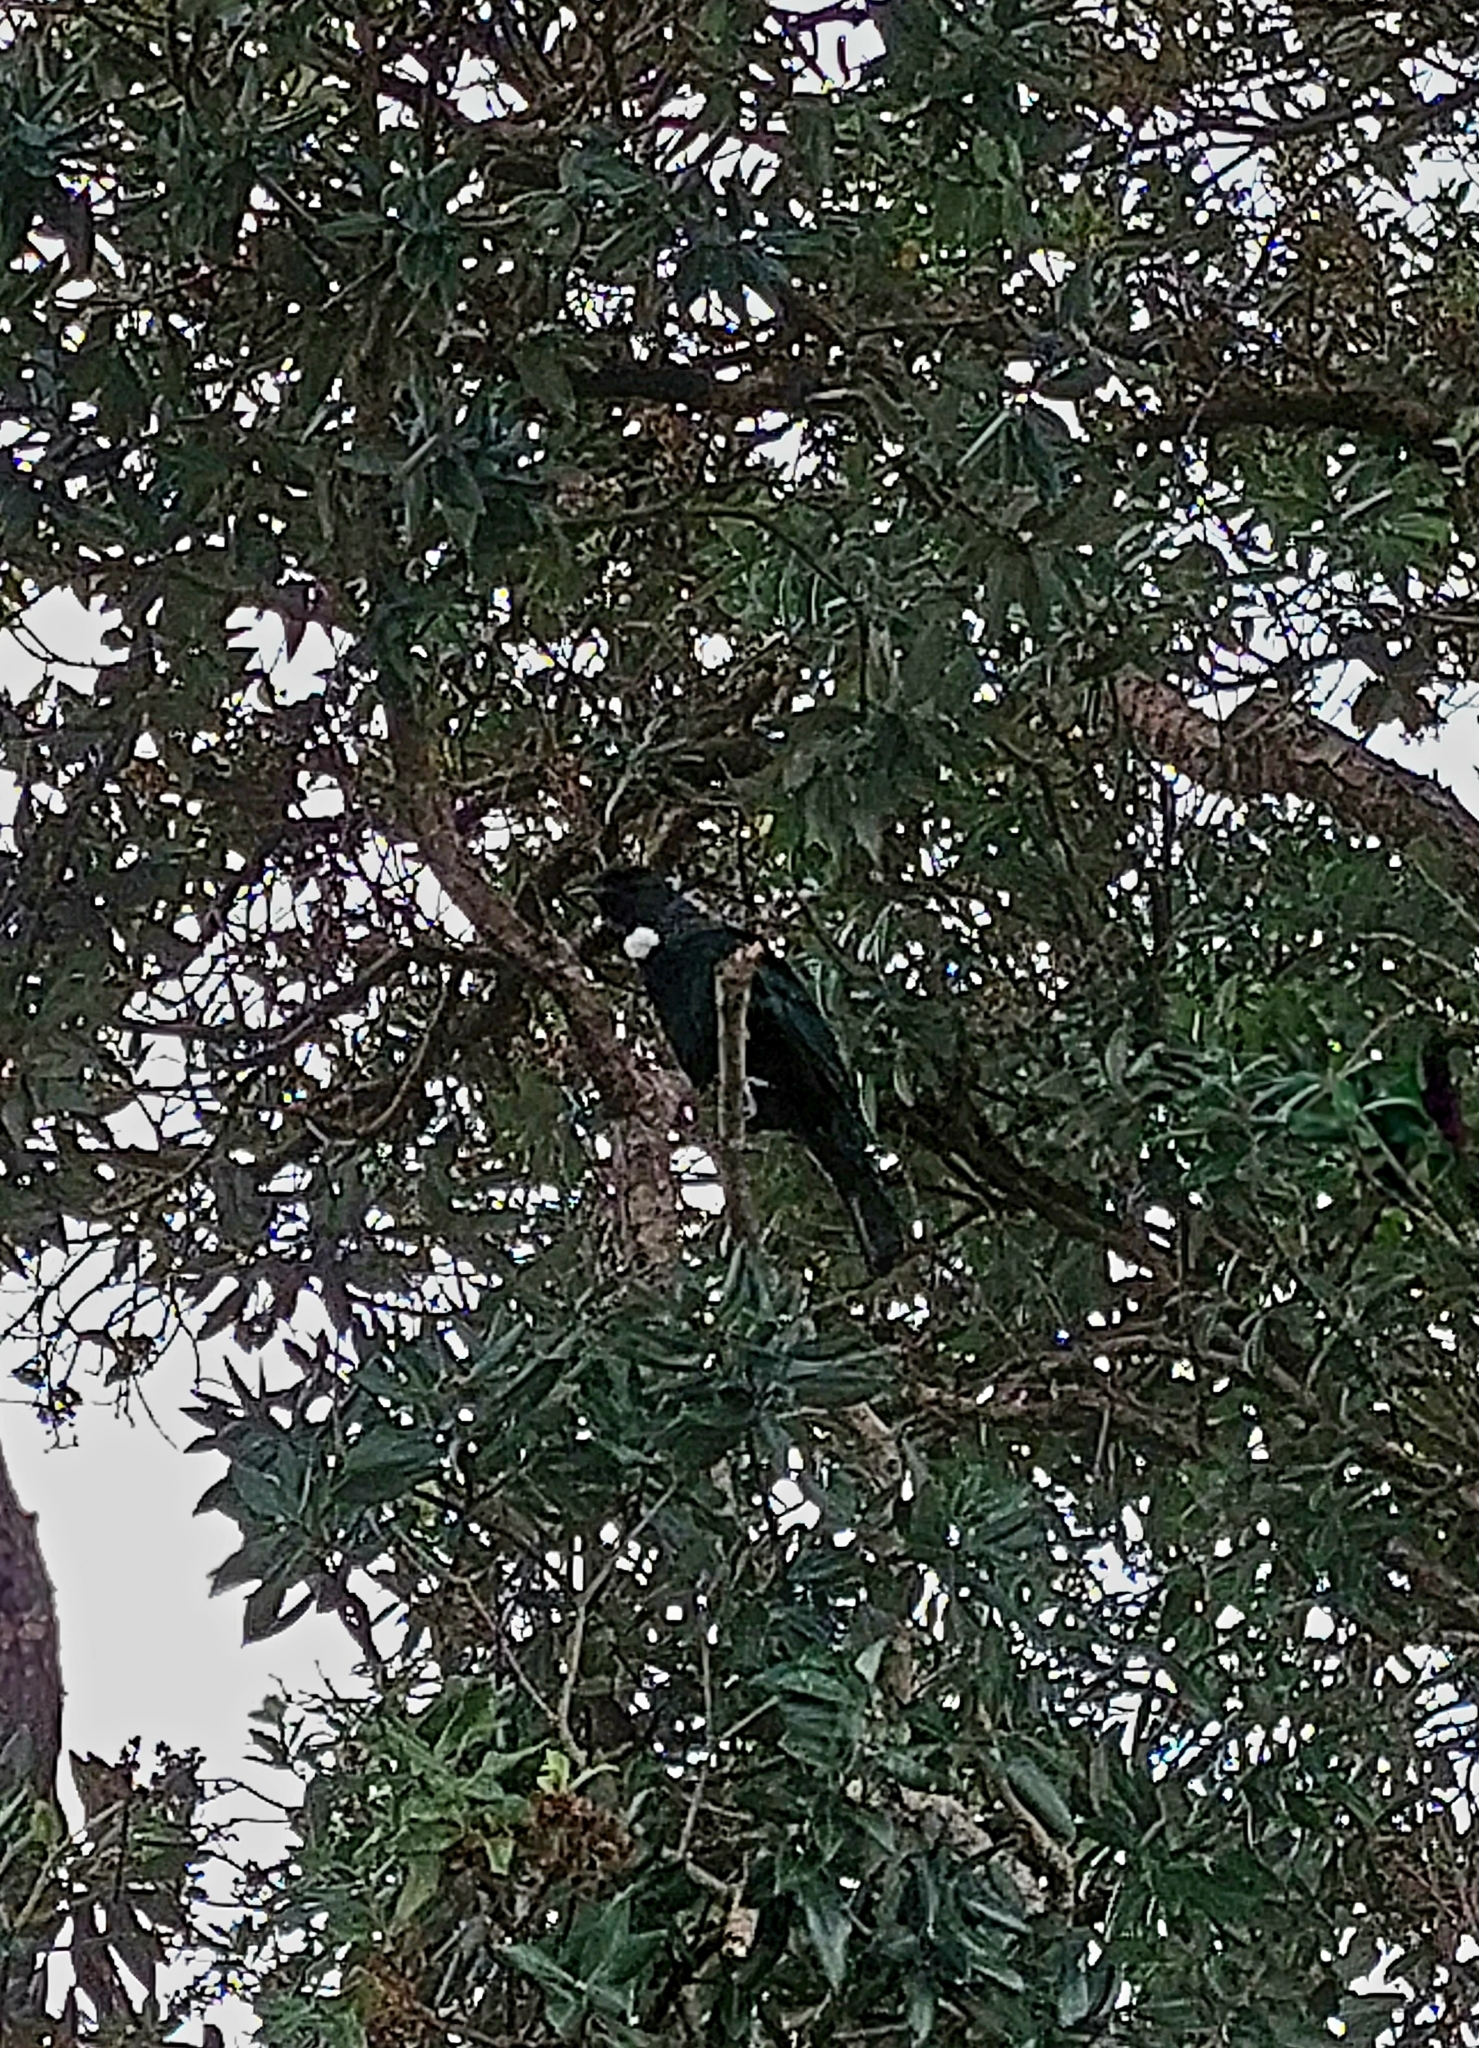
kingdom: Animalia
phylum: Chordata
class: Aves
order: Passeriformes
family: Meliphagidae
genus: Prosthemadera
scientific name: Prosthemadera novaeseelandiae
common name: Tui
